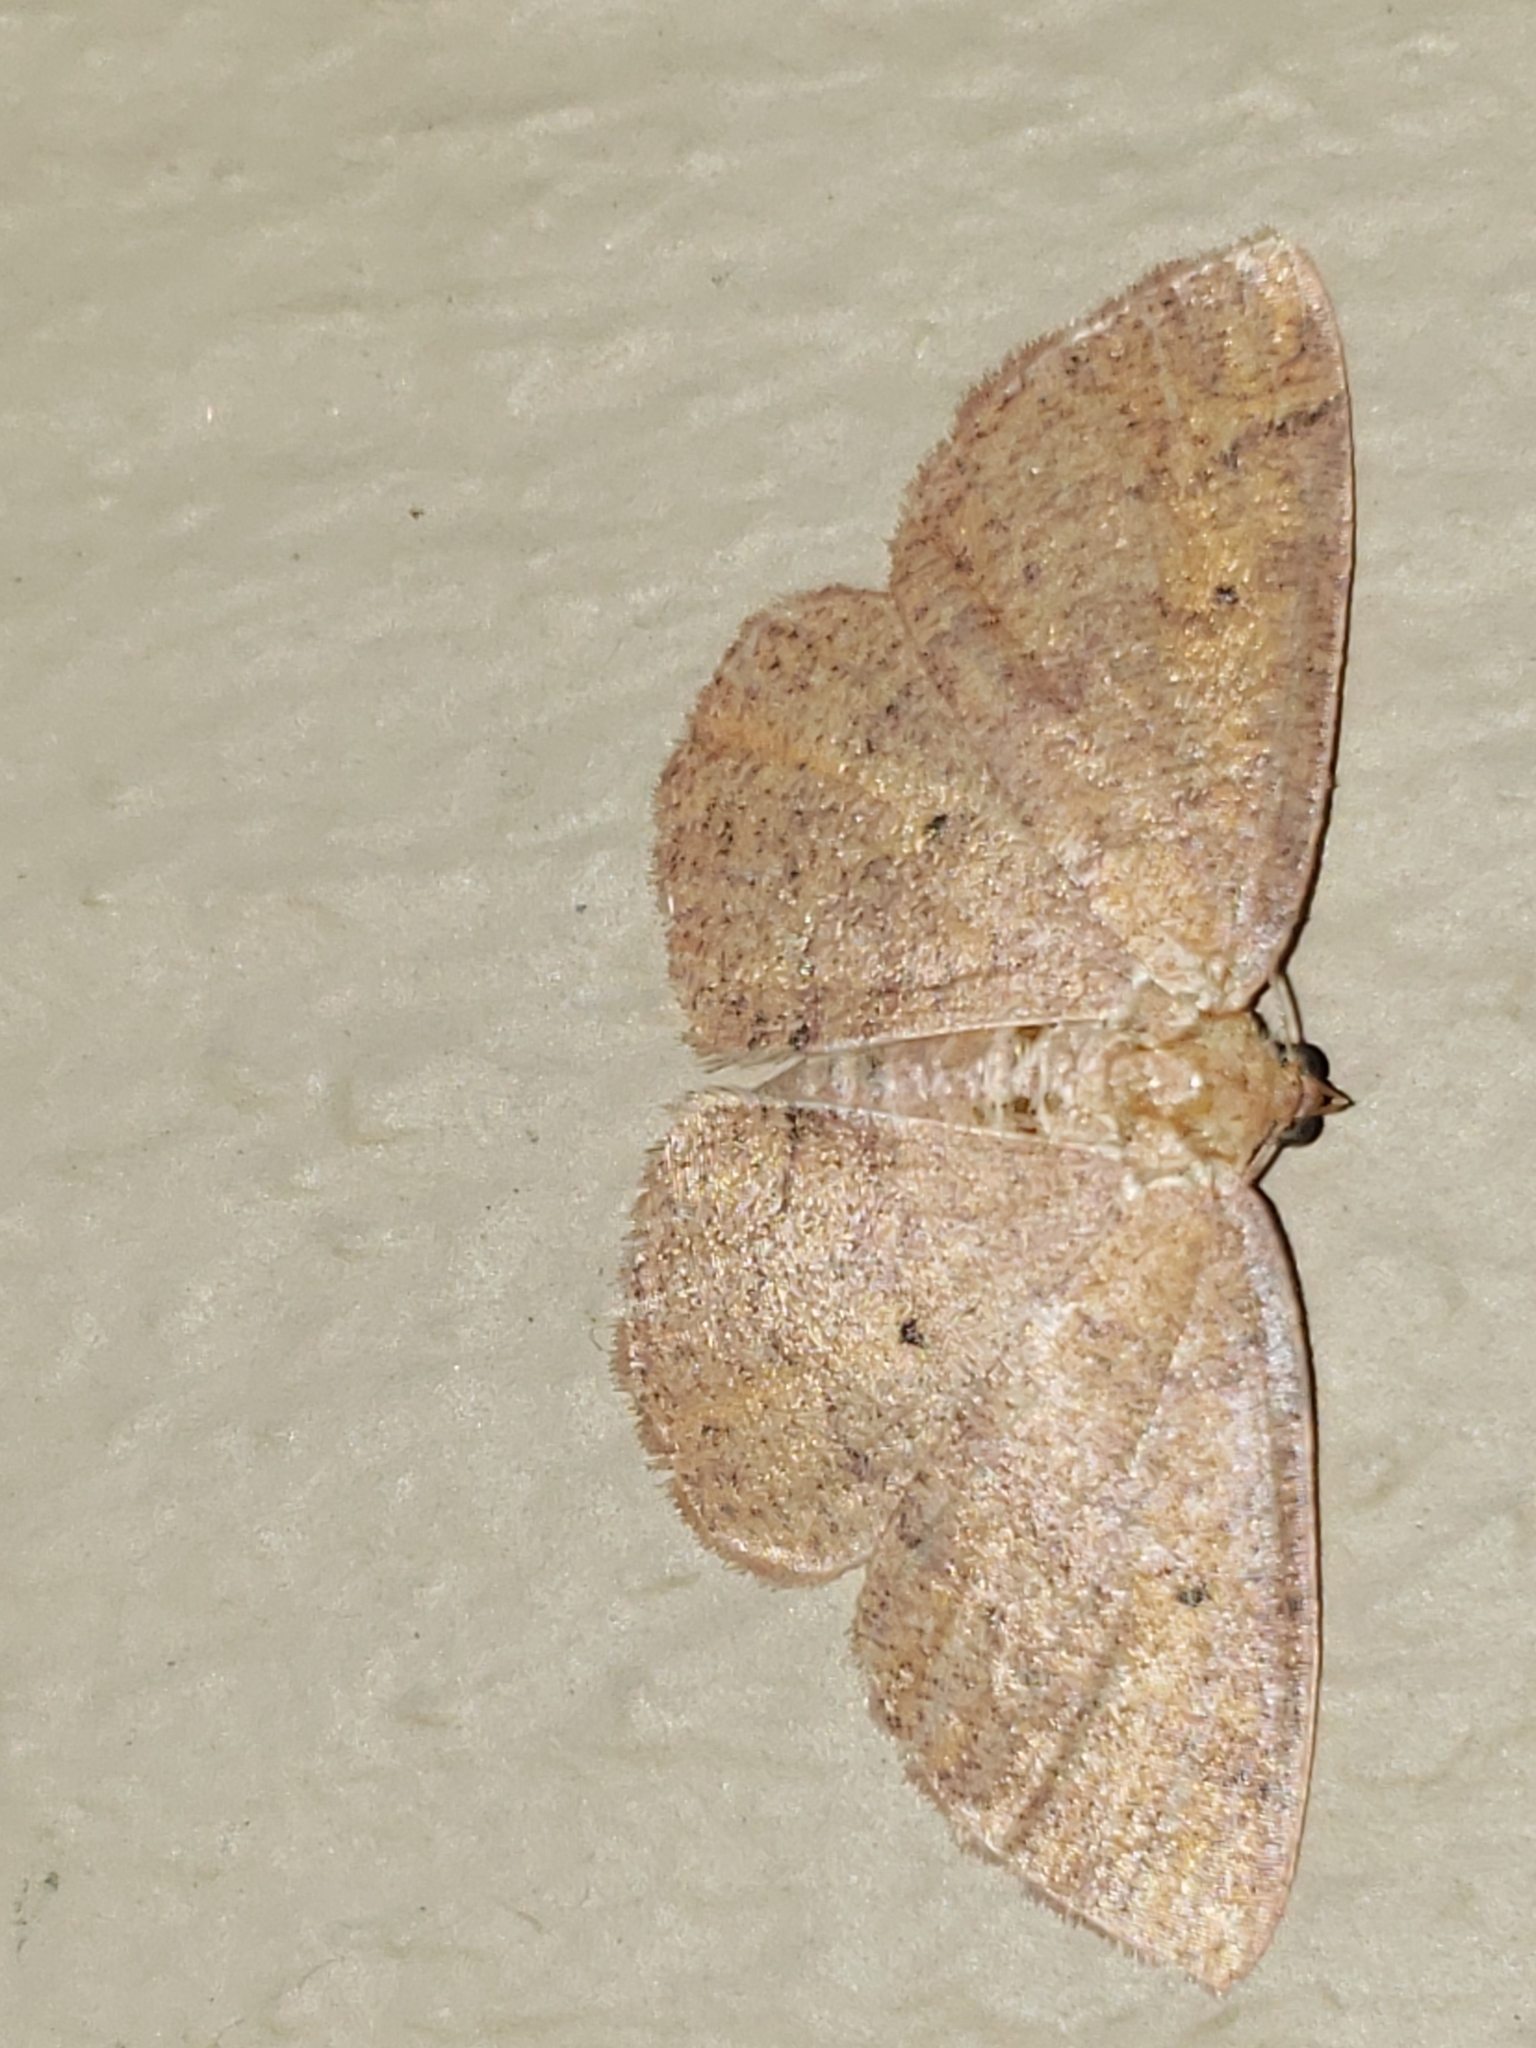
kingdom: Animalia
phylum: Arthropoda
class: Insecta
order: Lepidoptera
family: Geometridae
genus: Ilexia
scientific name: Ilexia intractata
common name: Black-dotted ruddy moth
